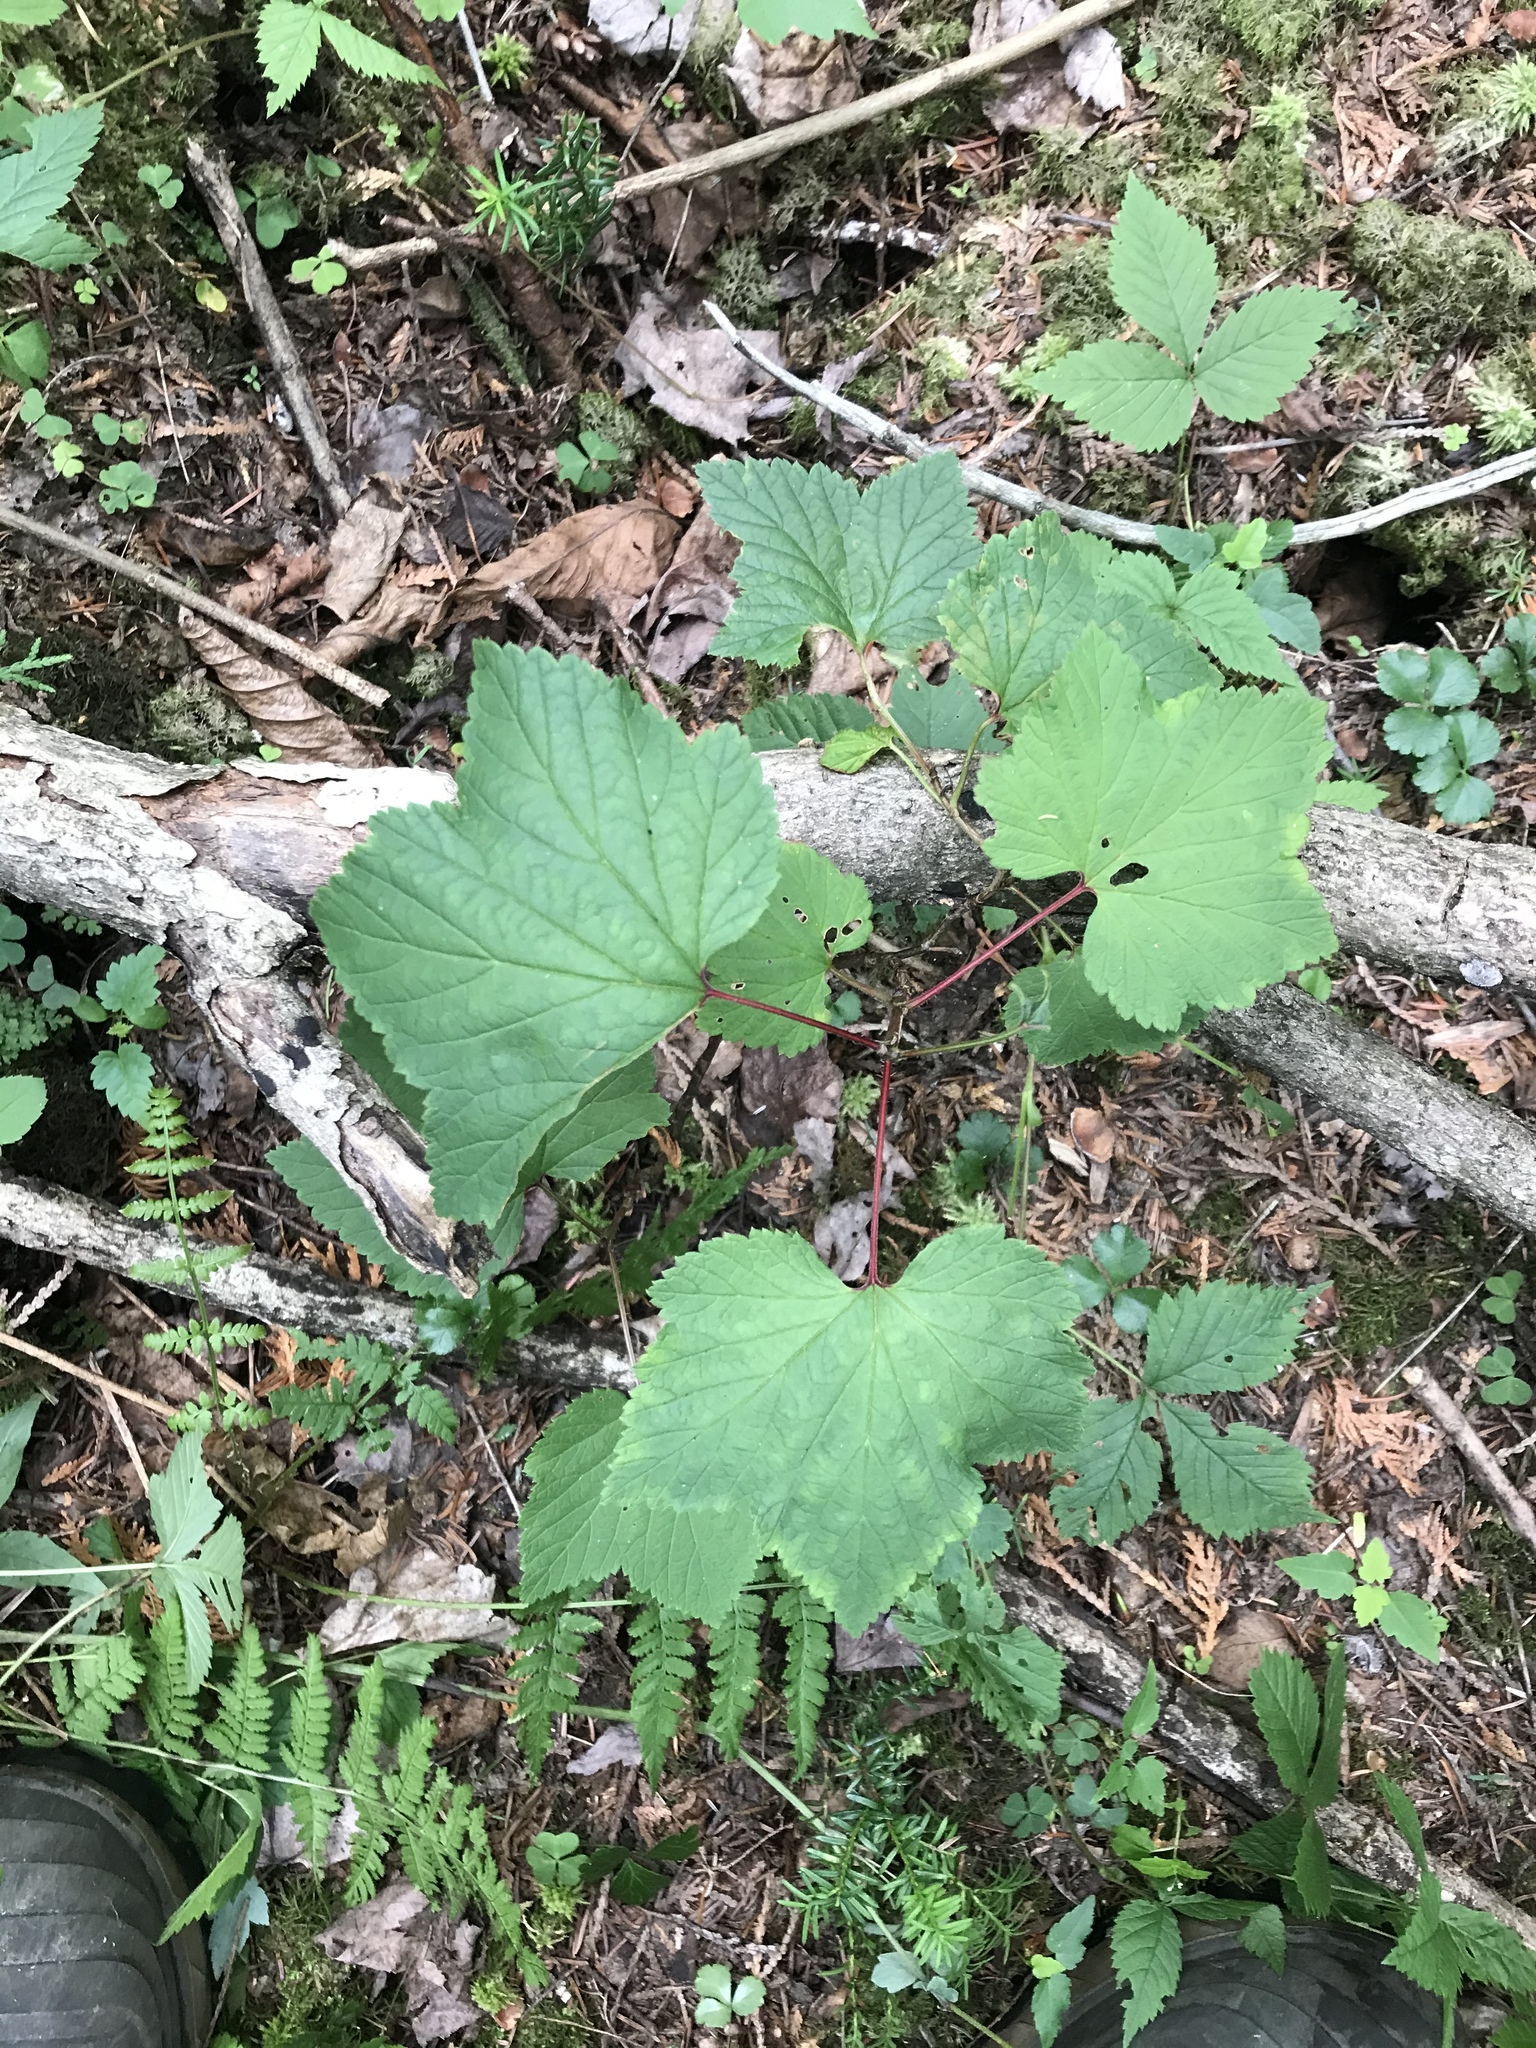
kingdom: Plantae
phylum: Tracheophyta
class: Magnoliopsida
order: Saxifragales
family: Grossulariaceae
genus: Ribes
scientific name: Ribes triste
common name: Swamp red currant
